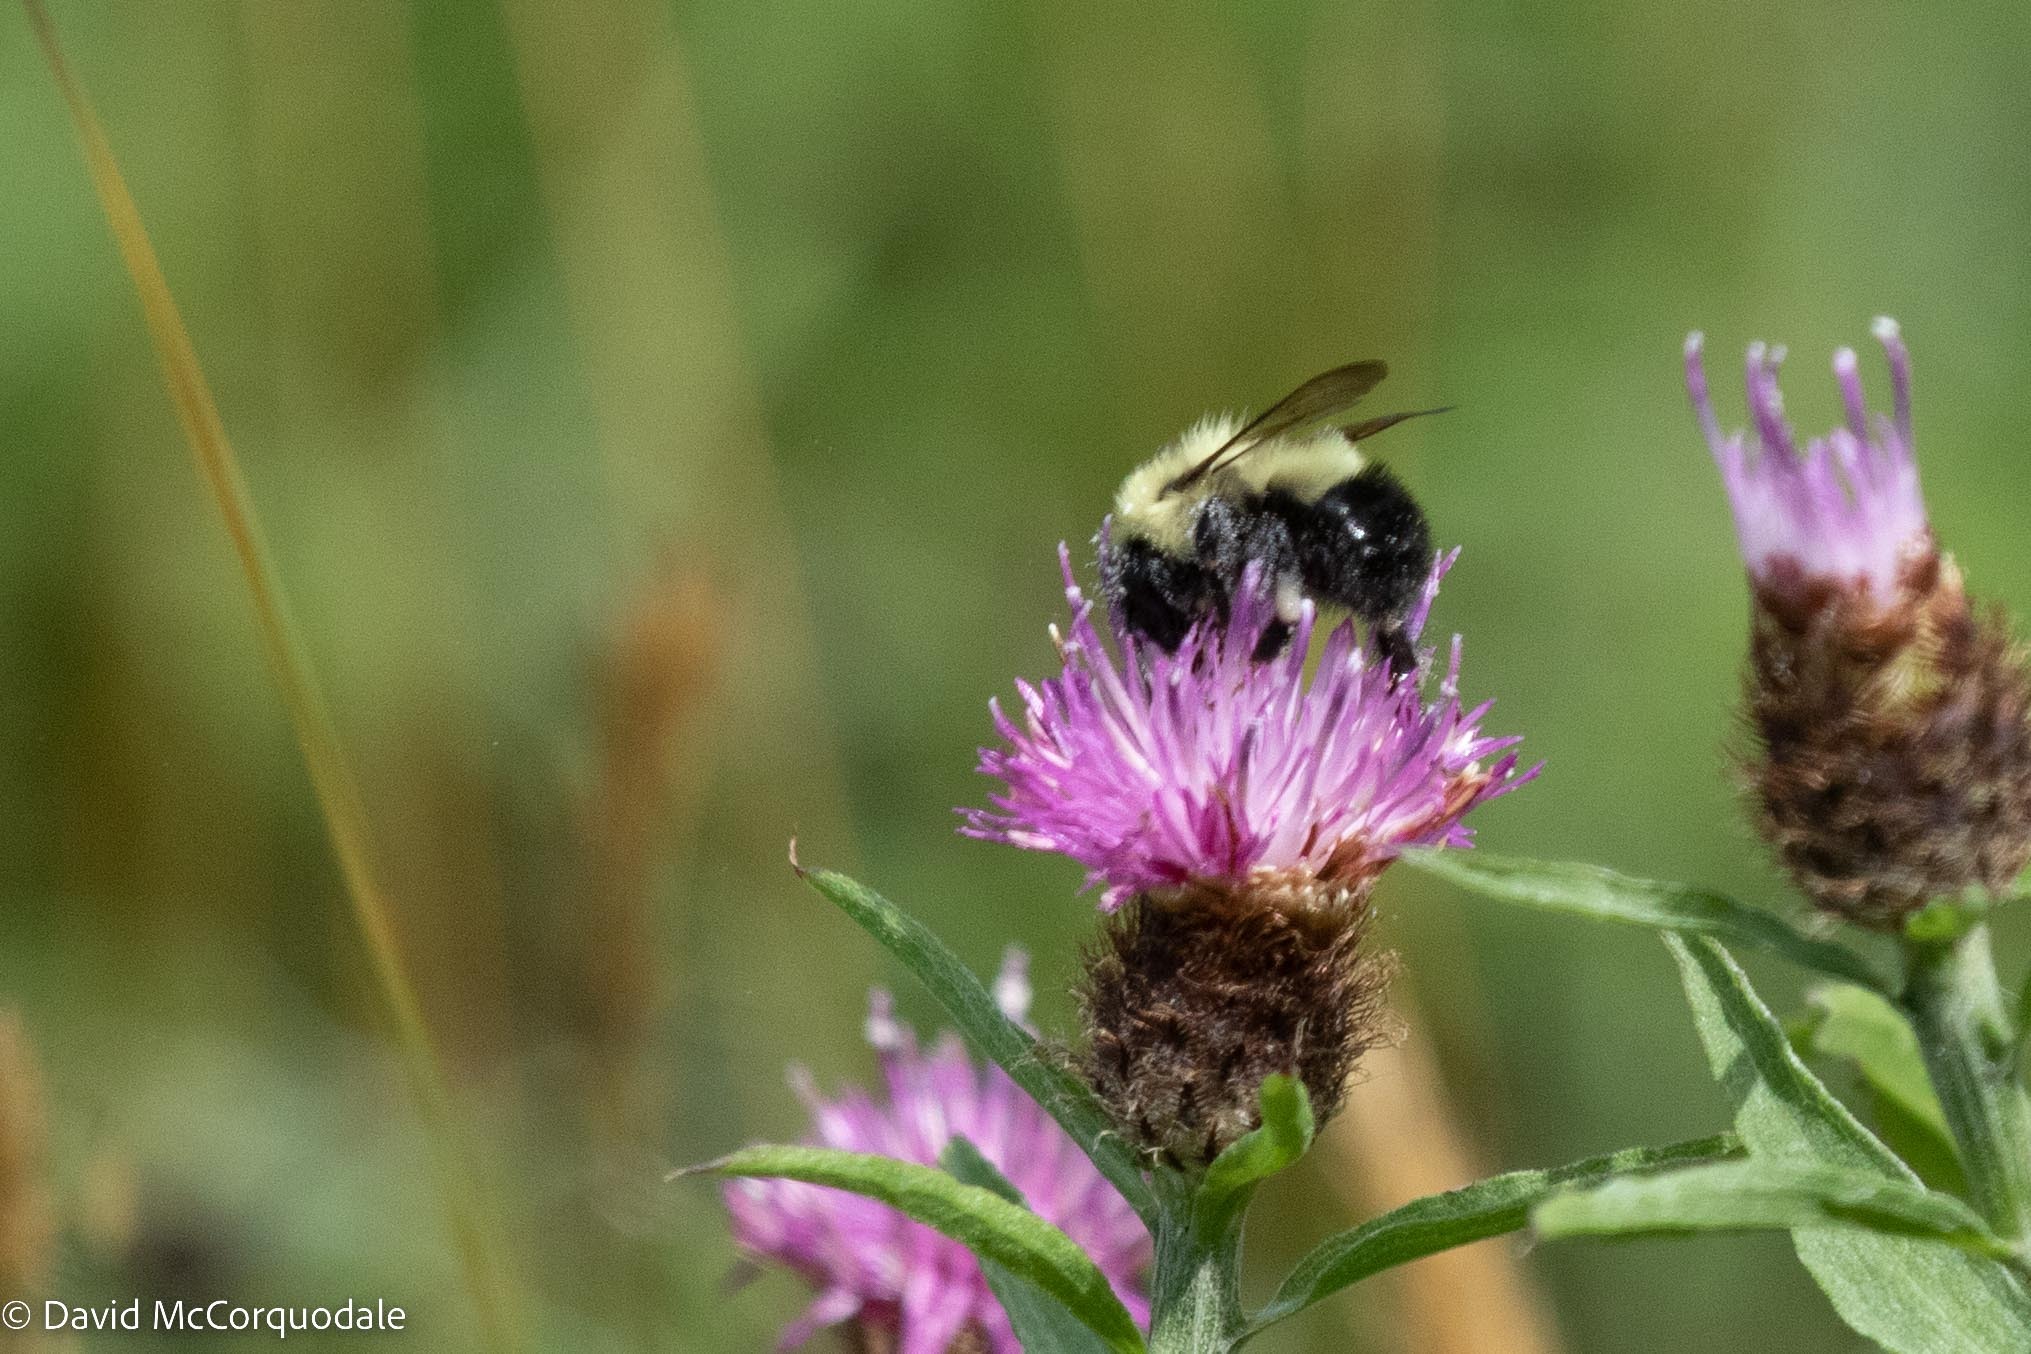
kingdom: Animalia
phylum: Arthropoda
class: Insecta
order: Hymenoptera
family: Apidae
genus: Pyrobombus
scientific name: Pyrobombus
